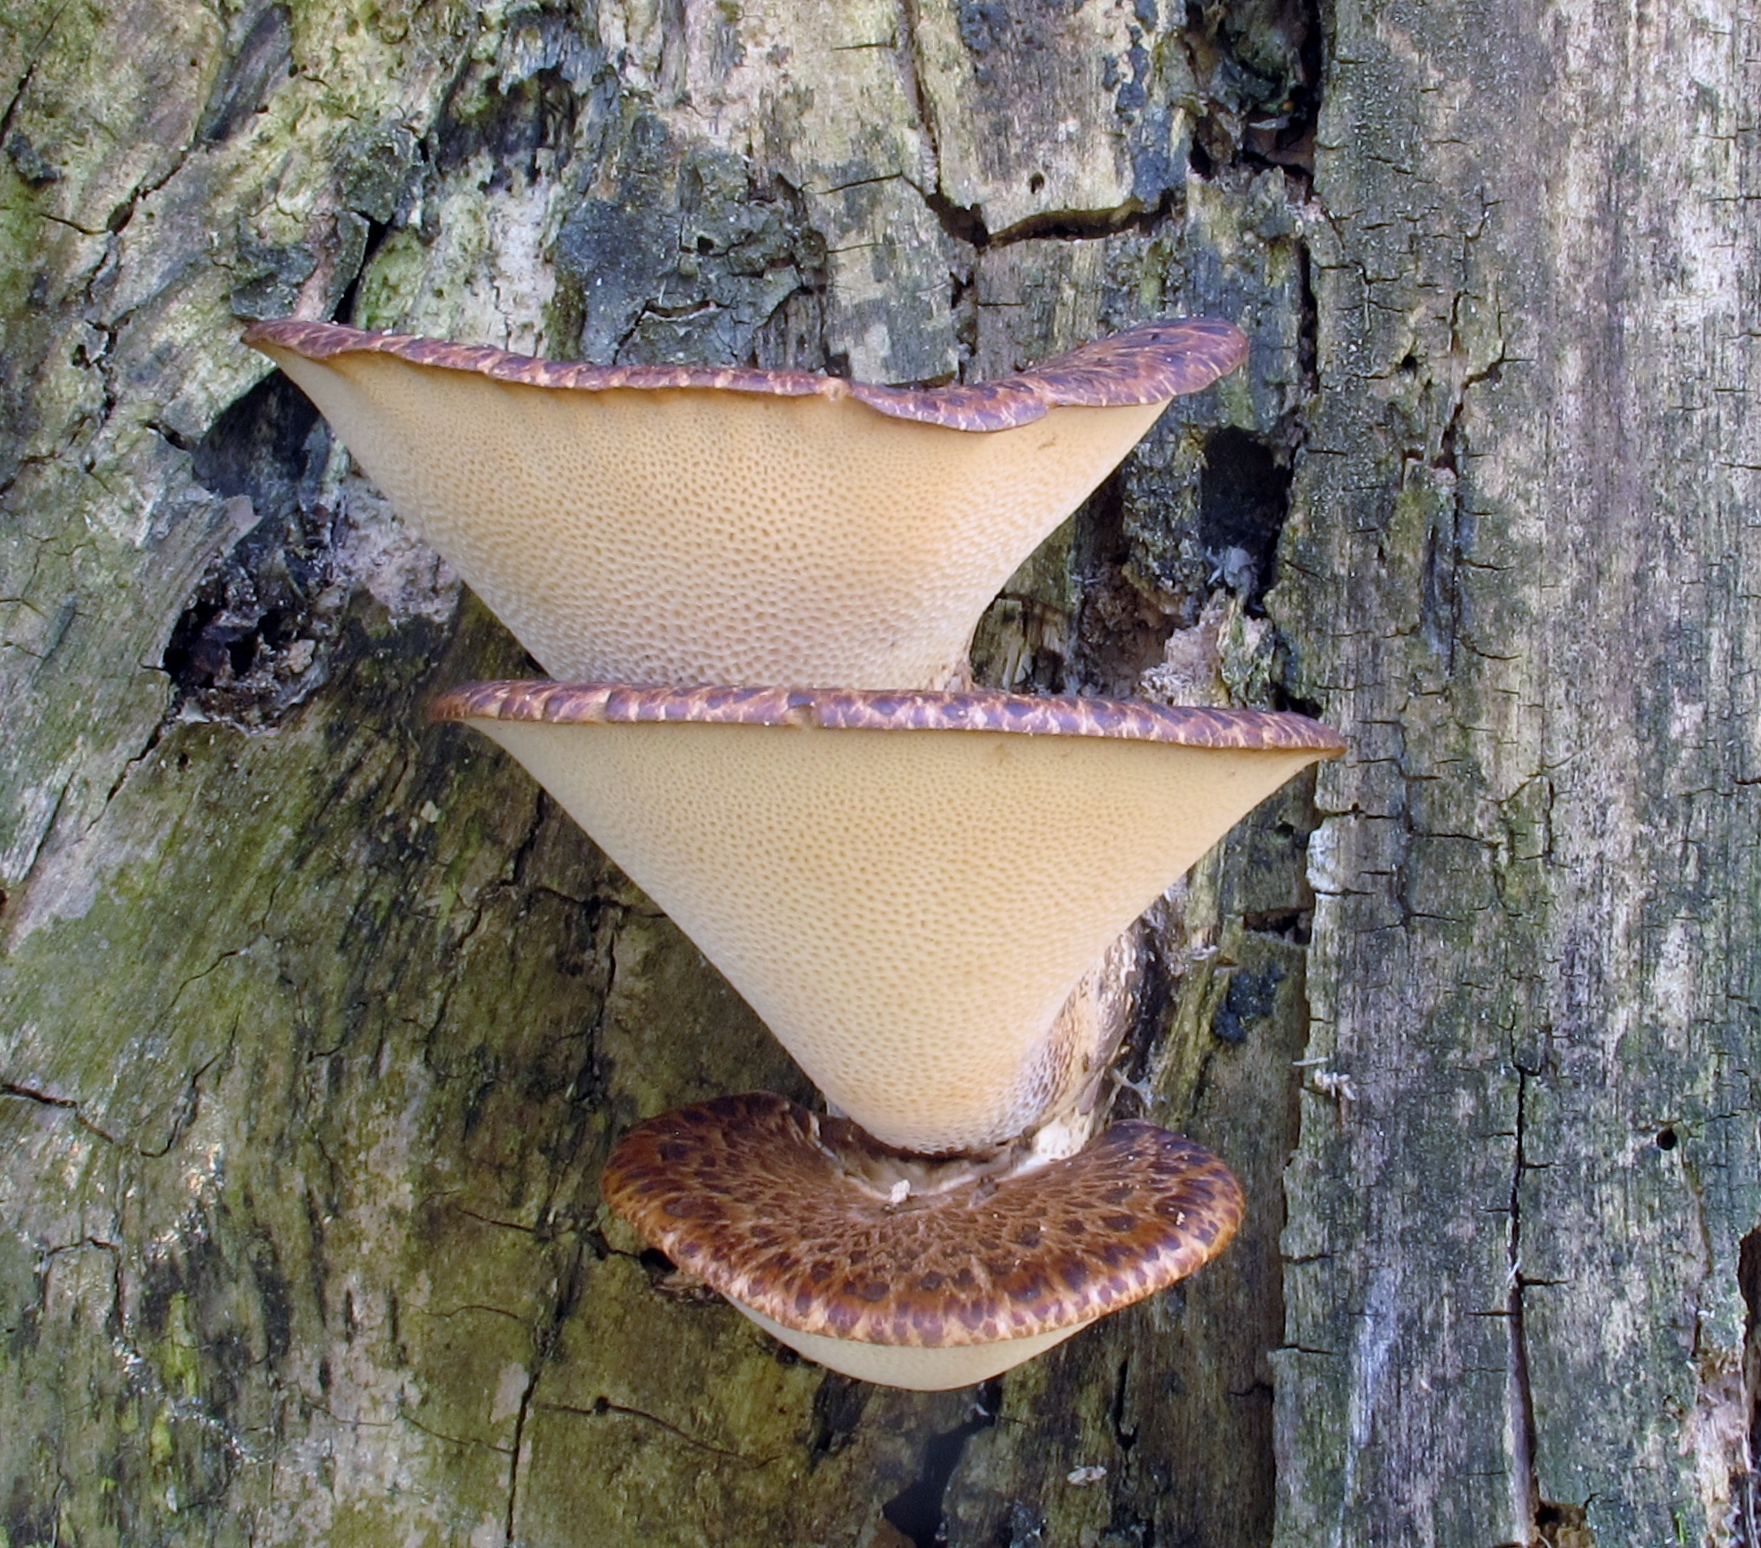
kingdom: Fungi
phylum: Basidiomycota
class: Agaricomycetes
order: Polyporales
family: Polyporaceae
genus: Cerioporus
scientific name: Cerioporus squamosus
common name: Dryad's saddle
